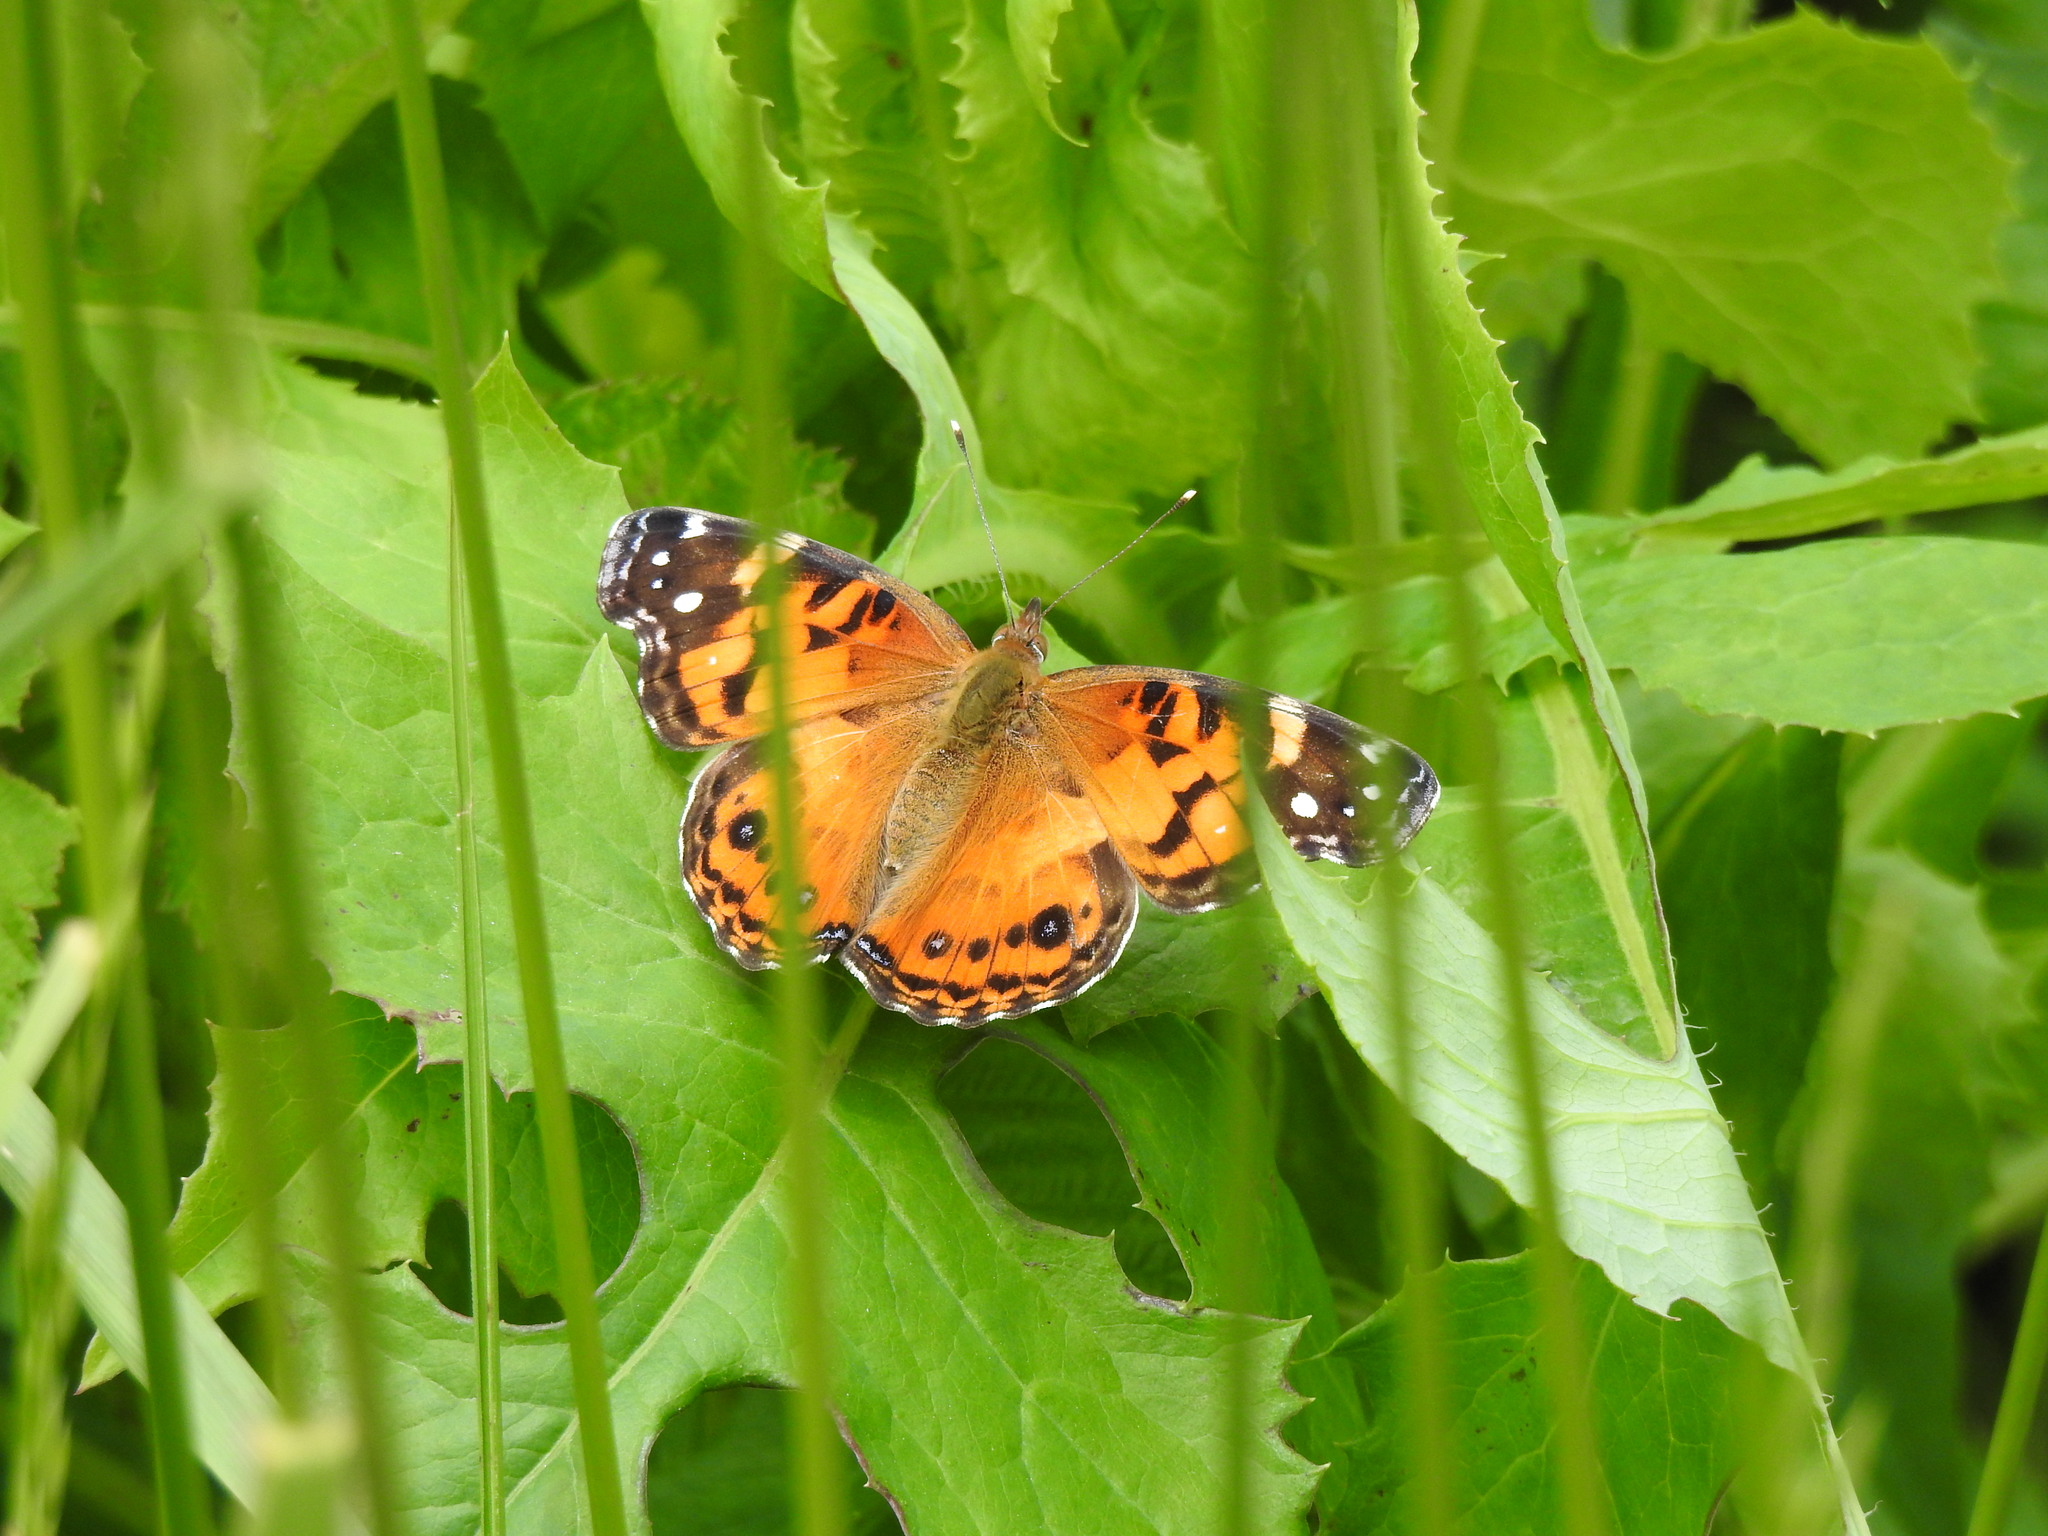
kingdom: Animalia
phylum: Arthropoda
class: Insecta
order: Lepidoptera
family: Nymphalidae
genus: Vanessa
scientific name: Vanessa virginiensis
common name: American lady
